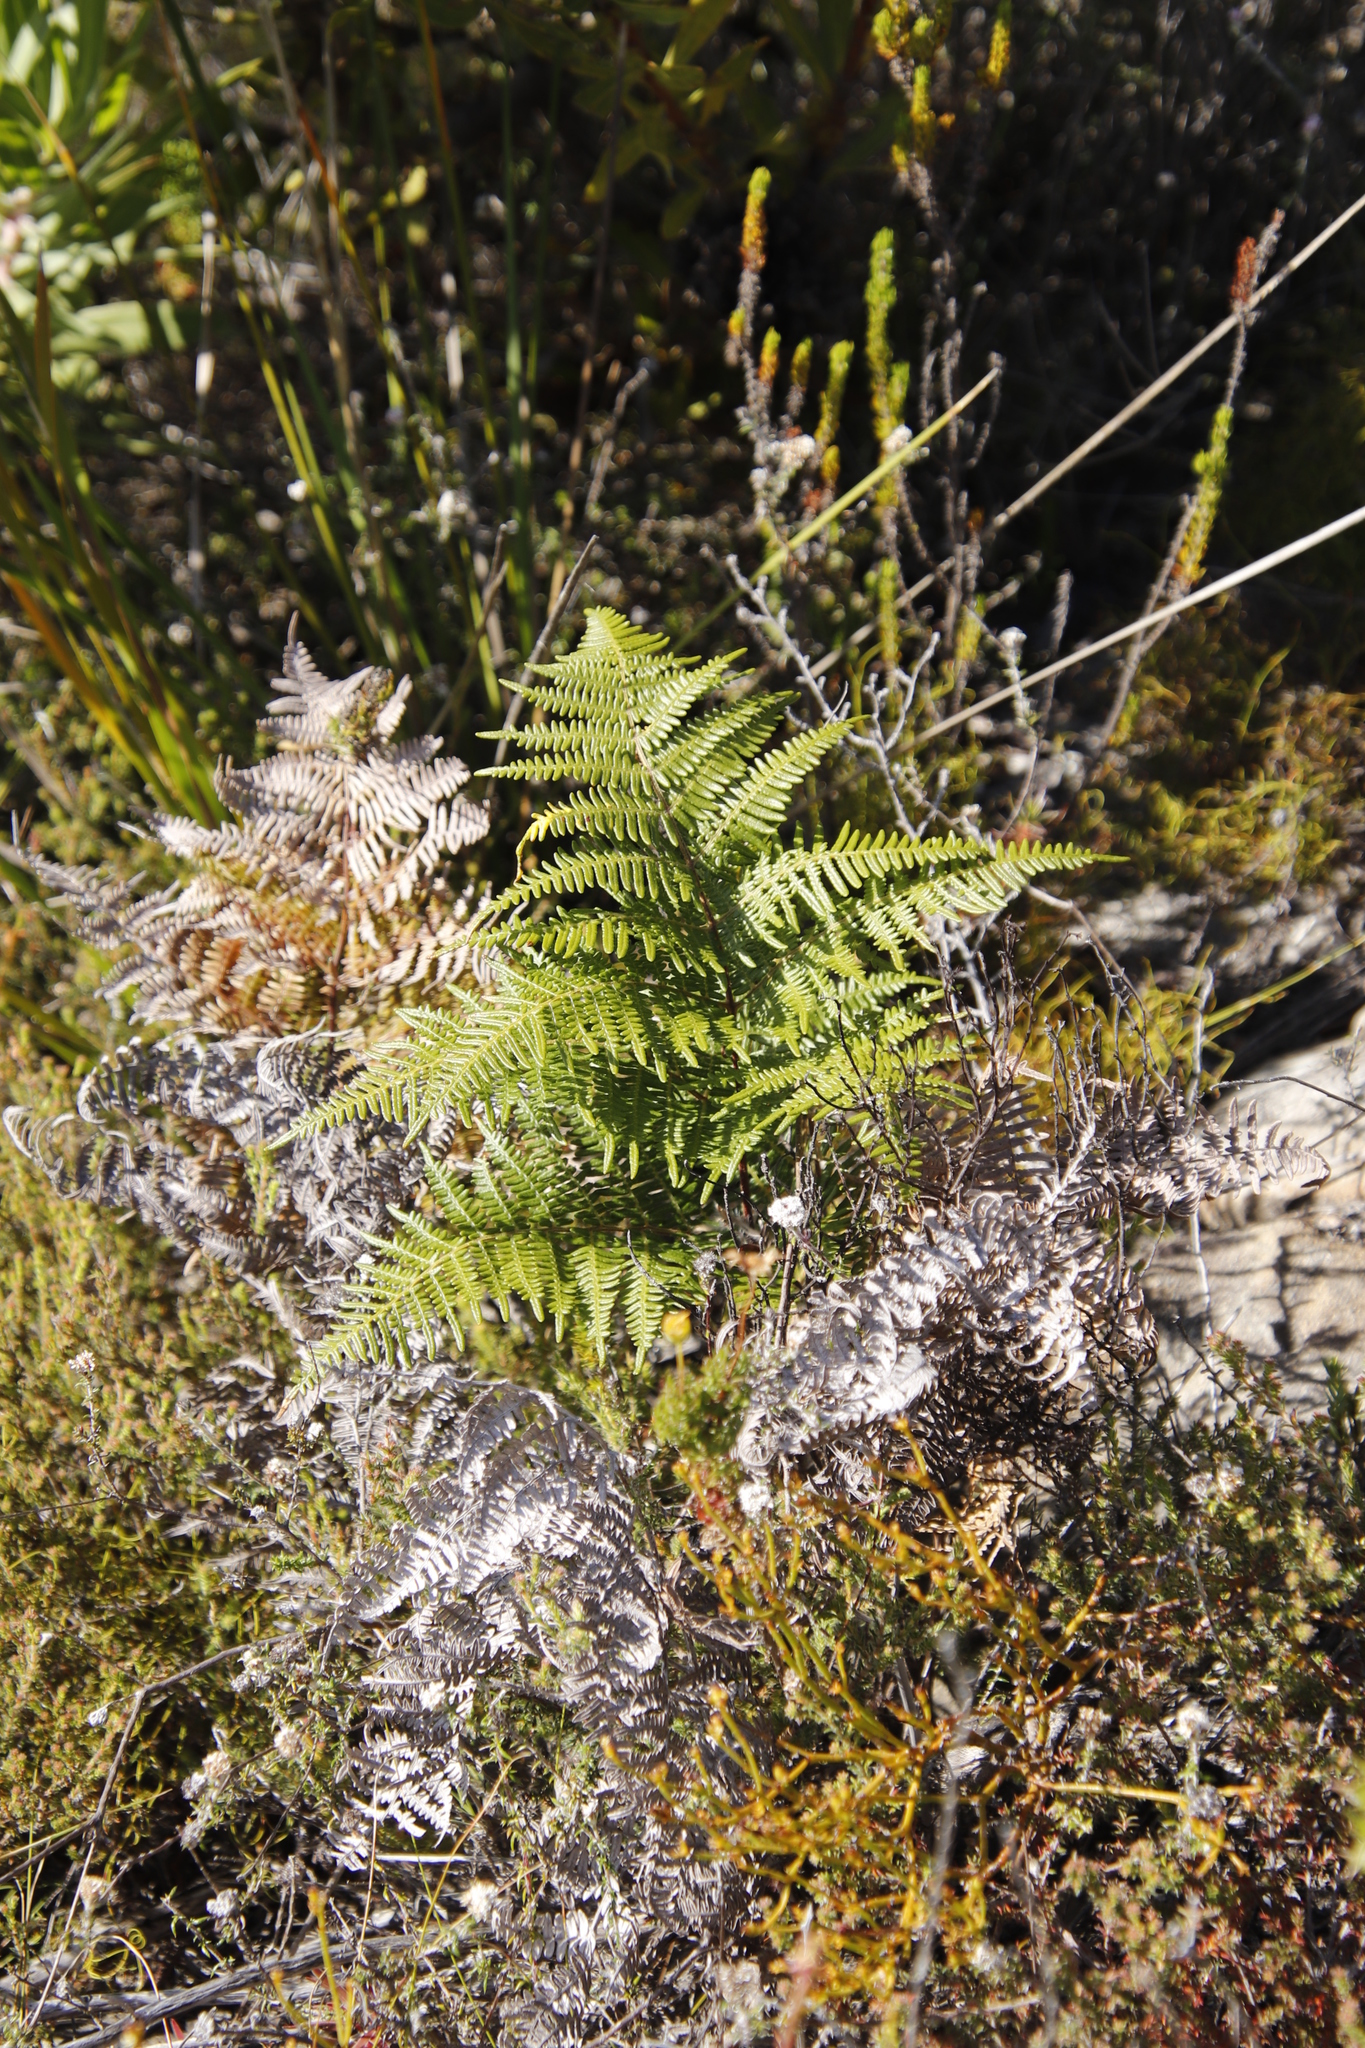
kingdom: Plantae
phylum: Tracheophyta
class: Polypodiopsida
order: Polypodiales
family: Dennstaedtiaceae
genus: Pteridium
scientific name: Pteridium aquilinum
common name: Bracken
